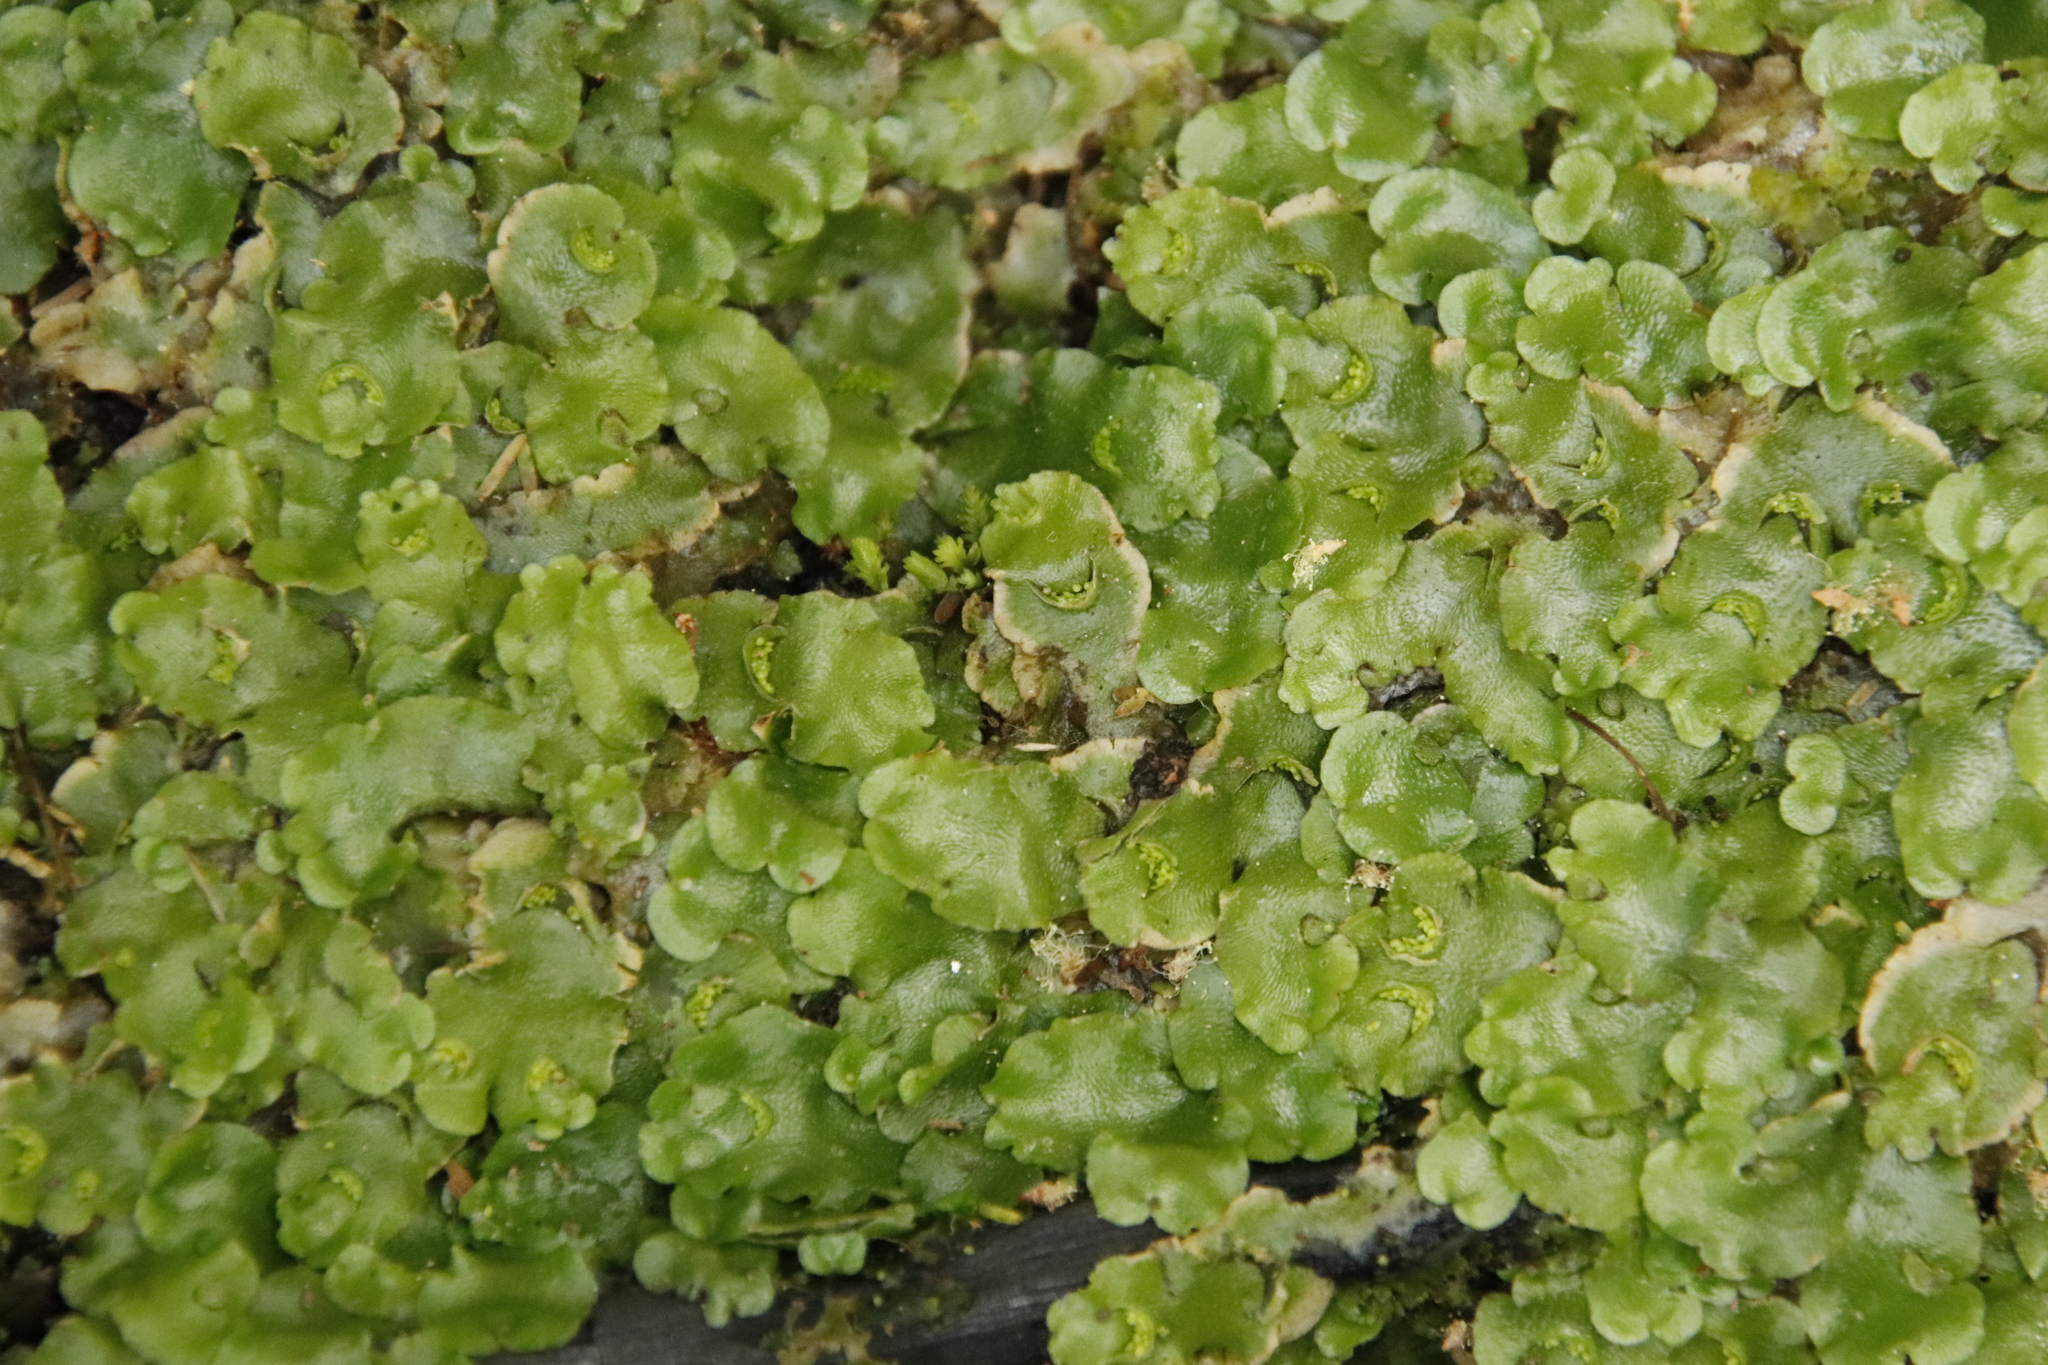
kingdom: Plantae
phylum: Marchantiophyta
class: Marchantiopsida
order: Lunulariales
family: Lunulariaceae
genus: Lunularia
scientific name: Lunularia cruciata
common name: Crescent-cup liverwort
